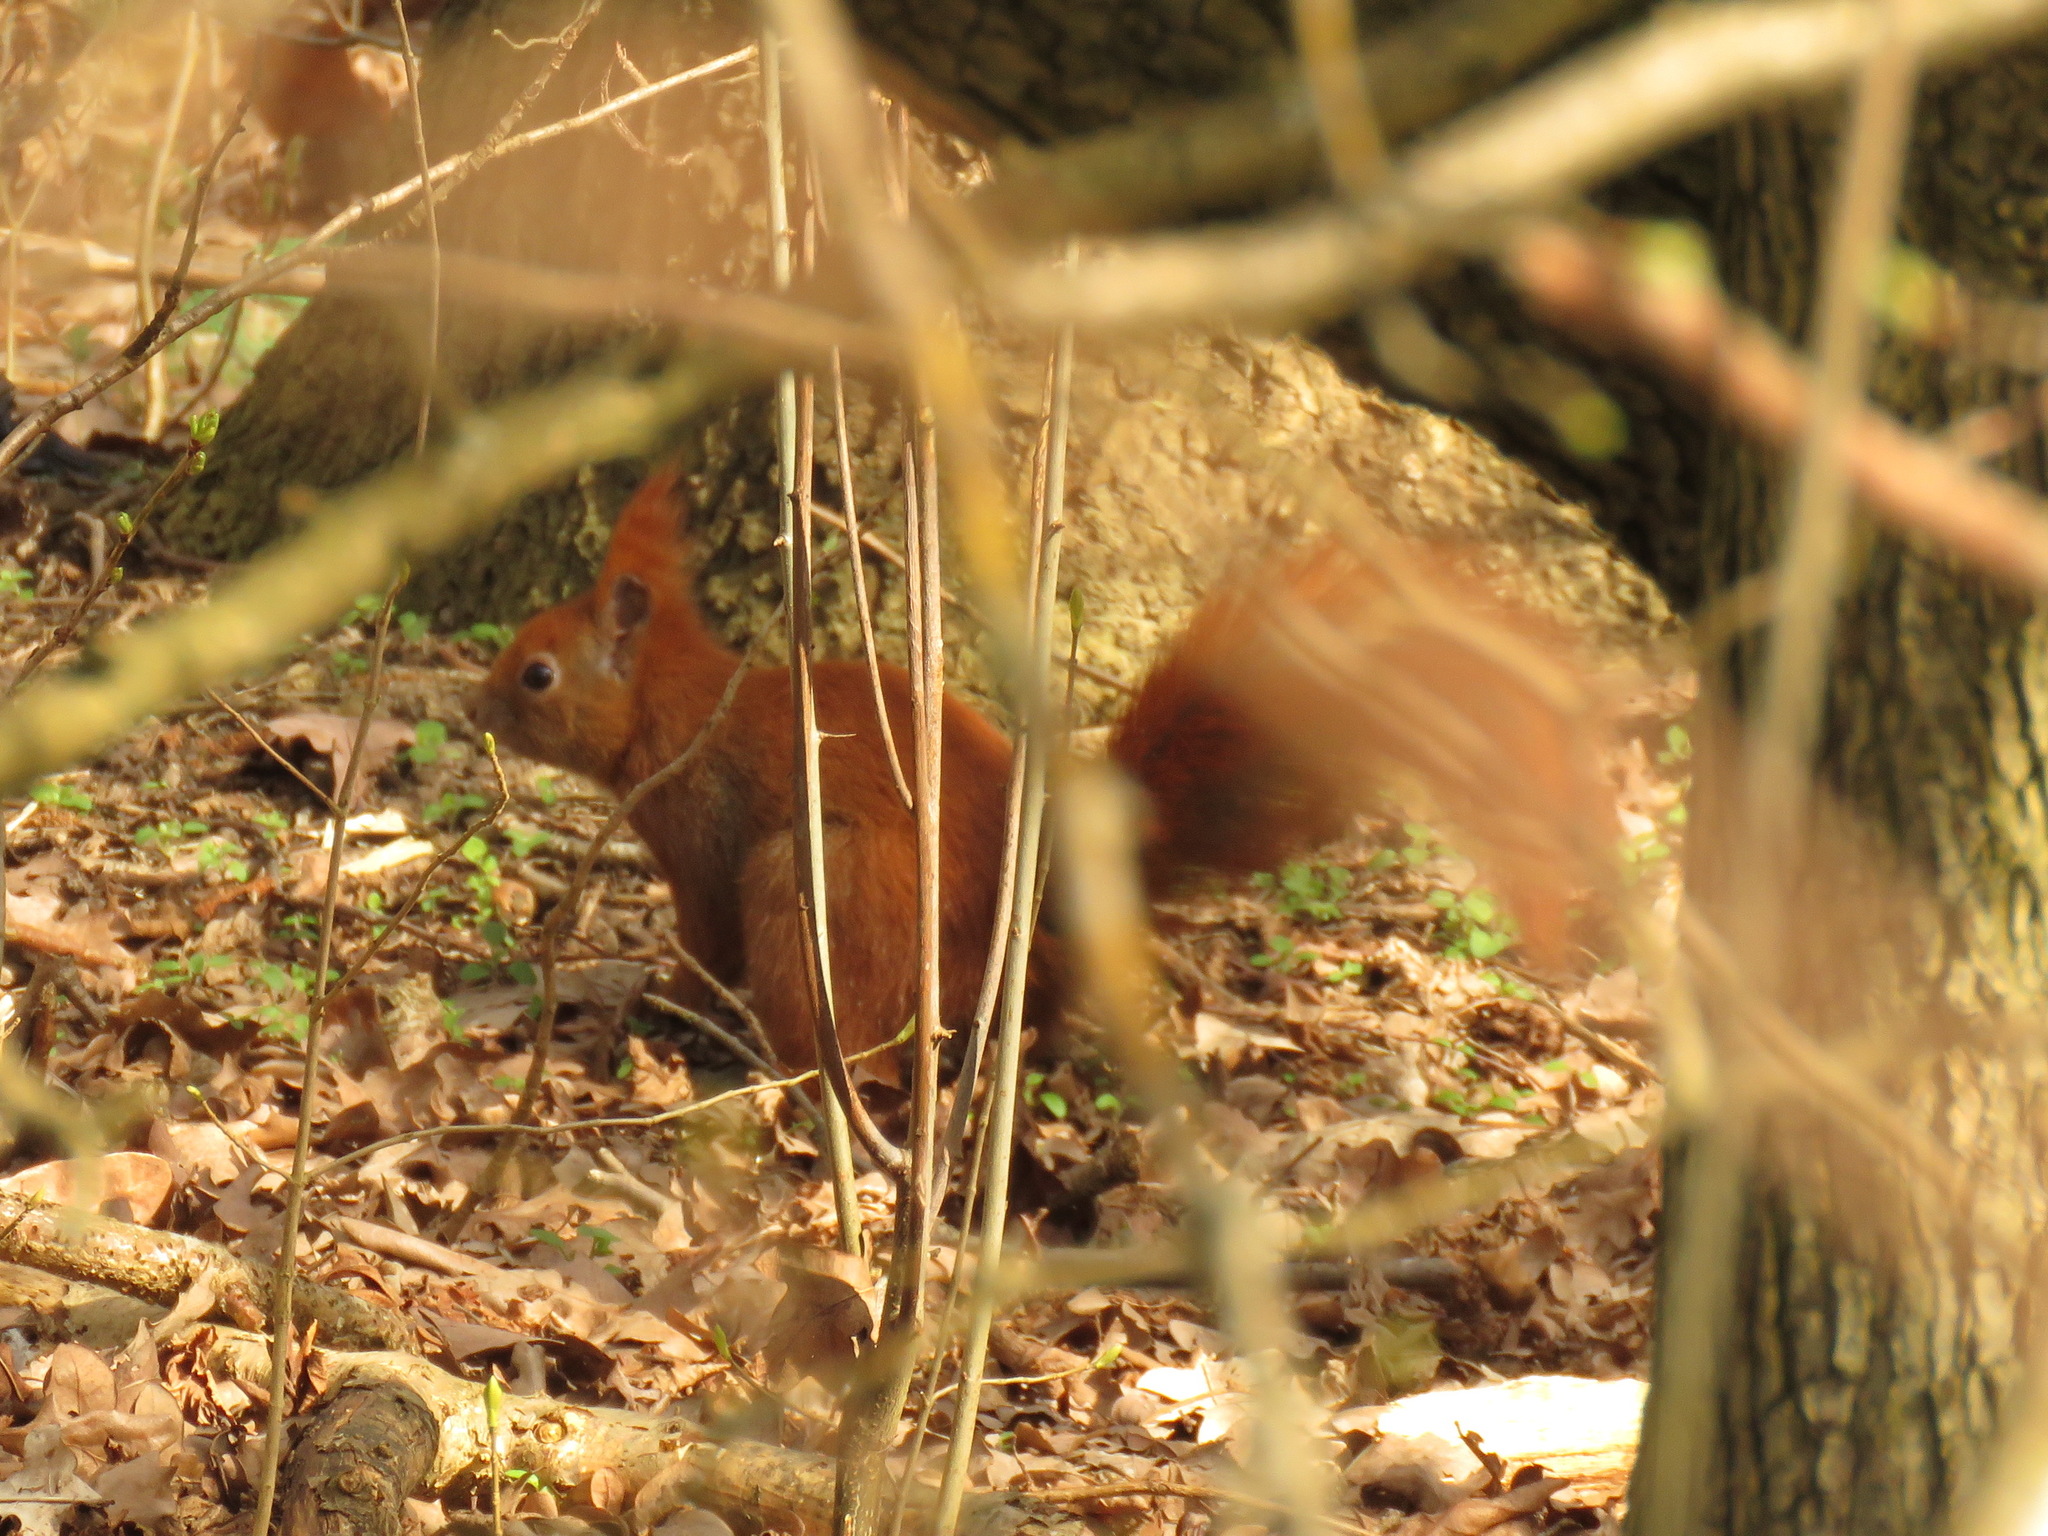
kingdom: Animalia
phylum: Chordata
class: Mammalia
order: Rodentia
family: Sciuridae
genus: Sciurus
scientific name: Sciurus vulgaris
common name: Eurasian red squirrel
